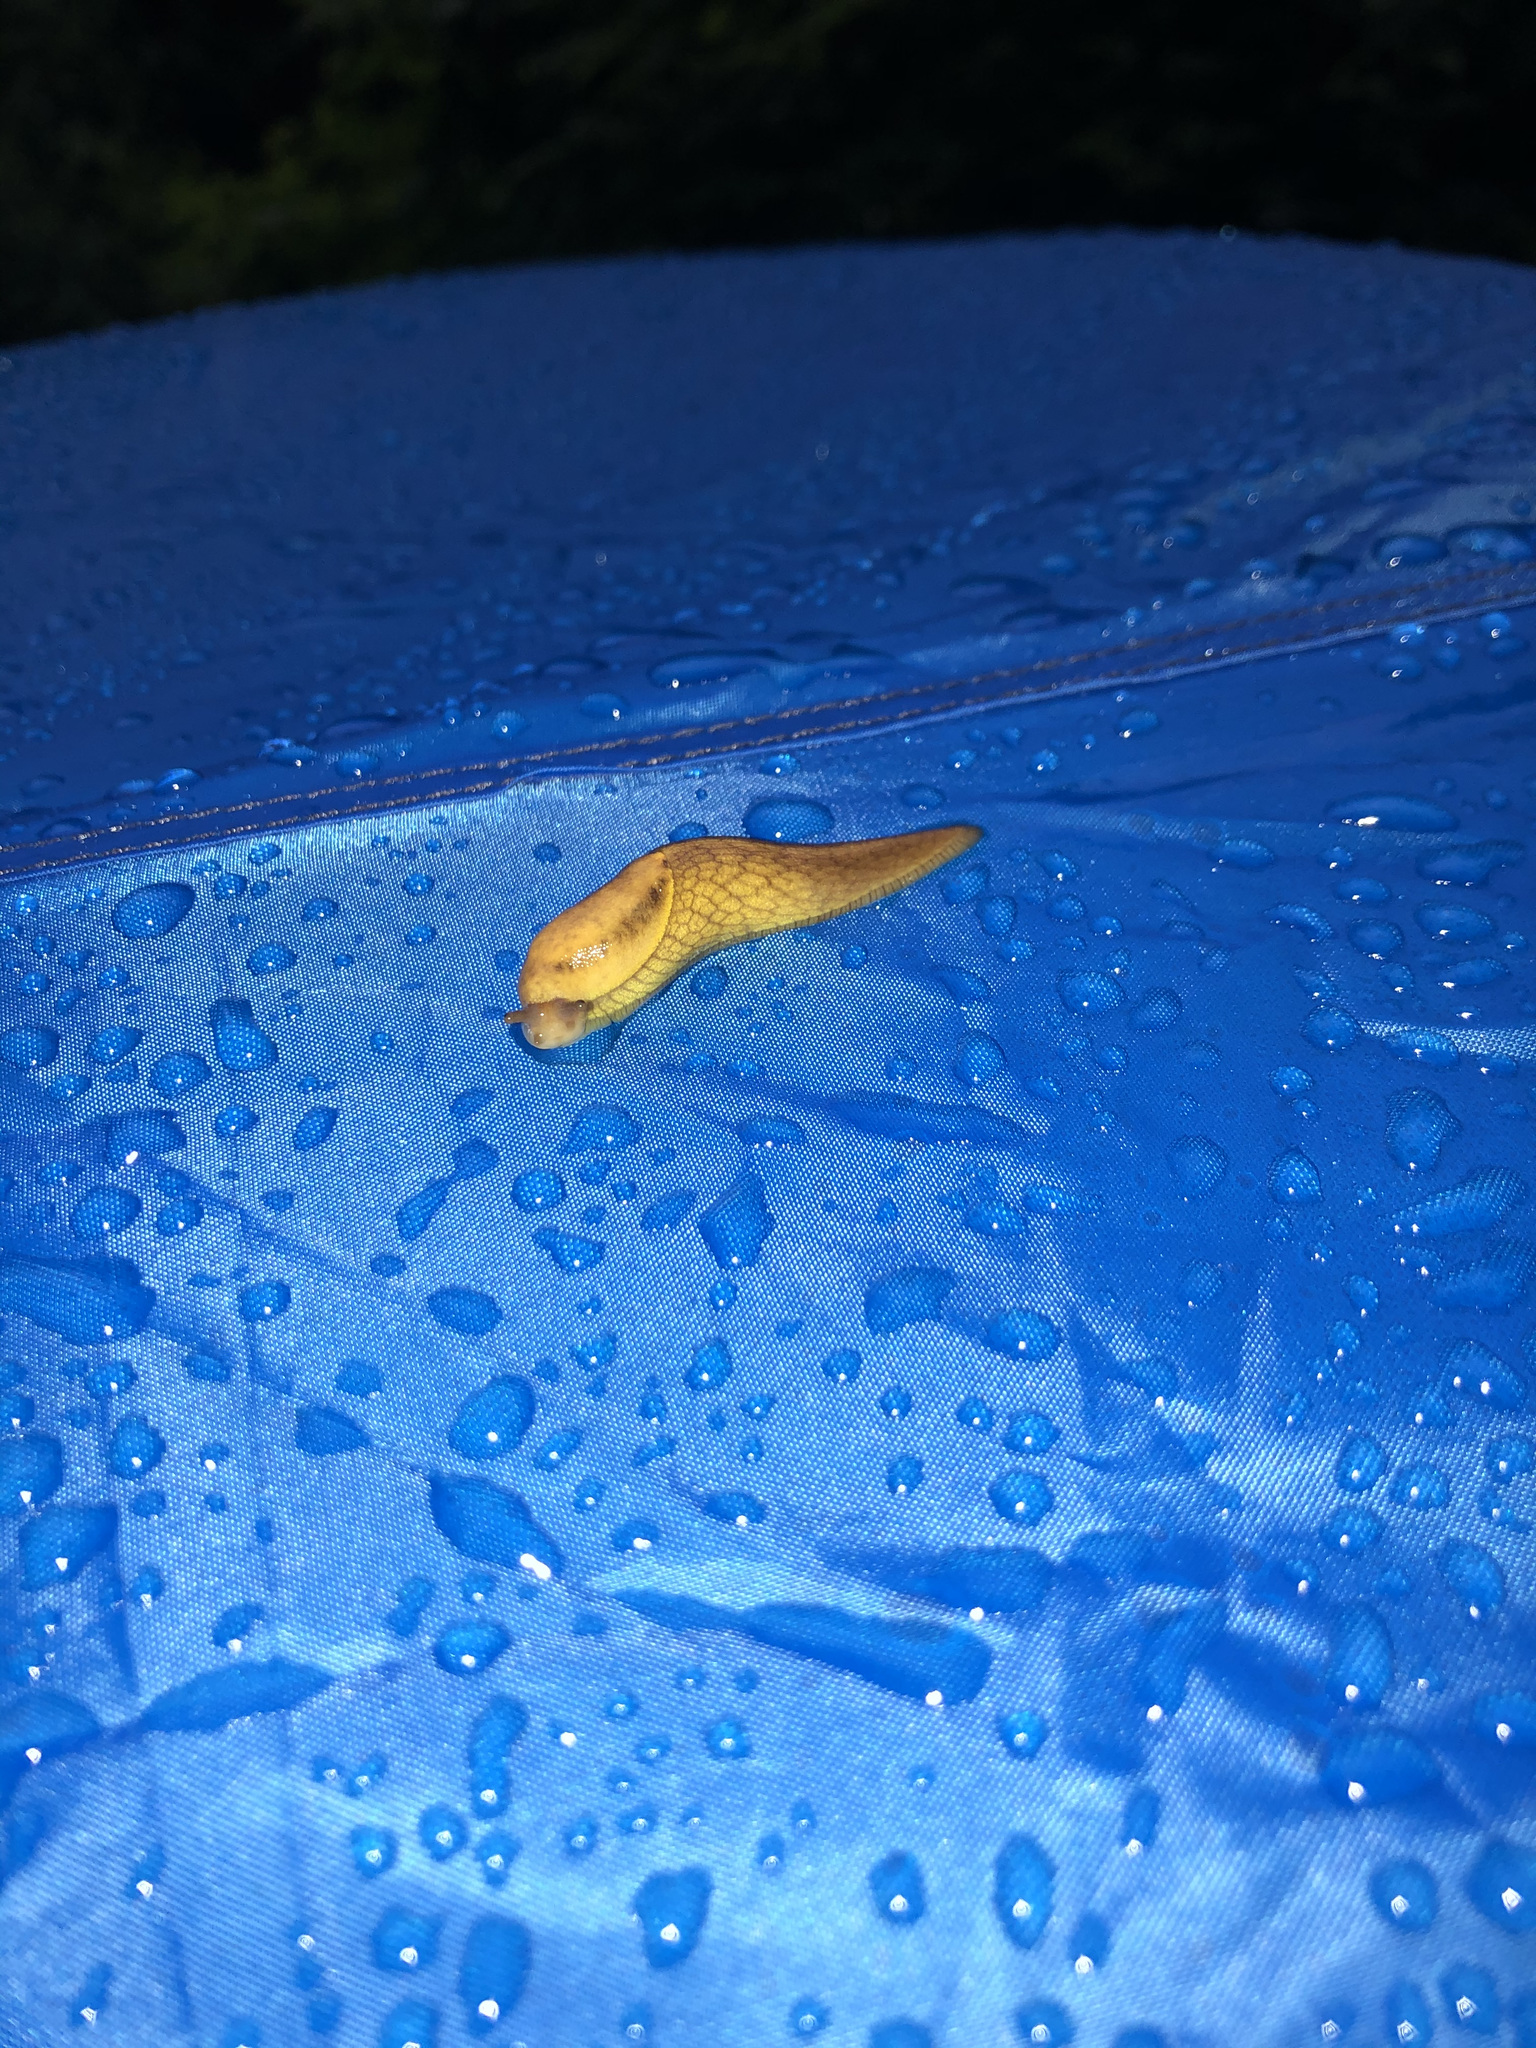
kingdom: Animalia
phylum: Mollusca
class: Gastropoda
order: Stylommatophora
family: Ariolimacidae
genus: Prophysaon
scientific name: Prophysaon andersonii
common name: Reticulate taildropper
